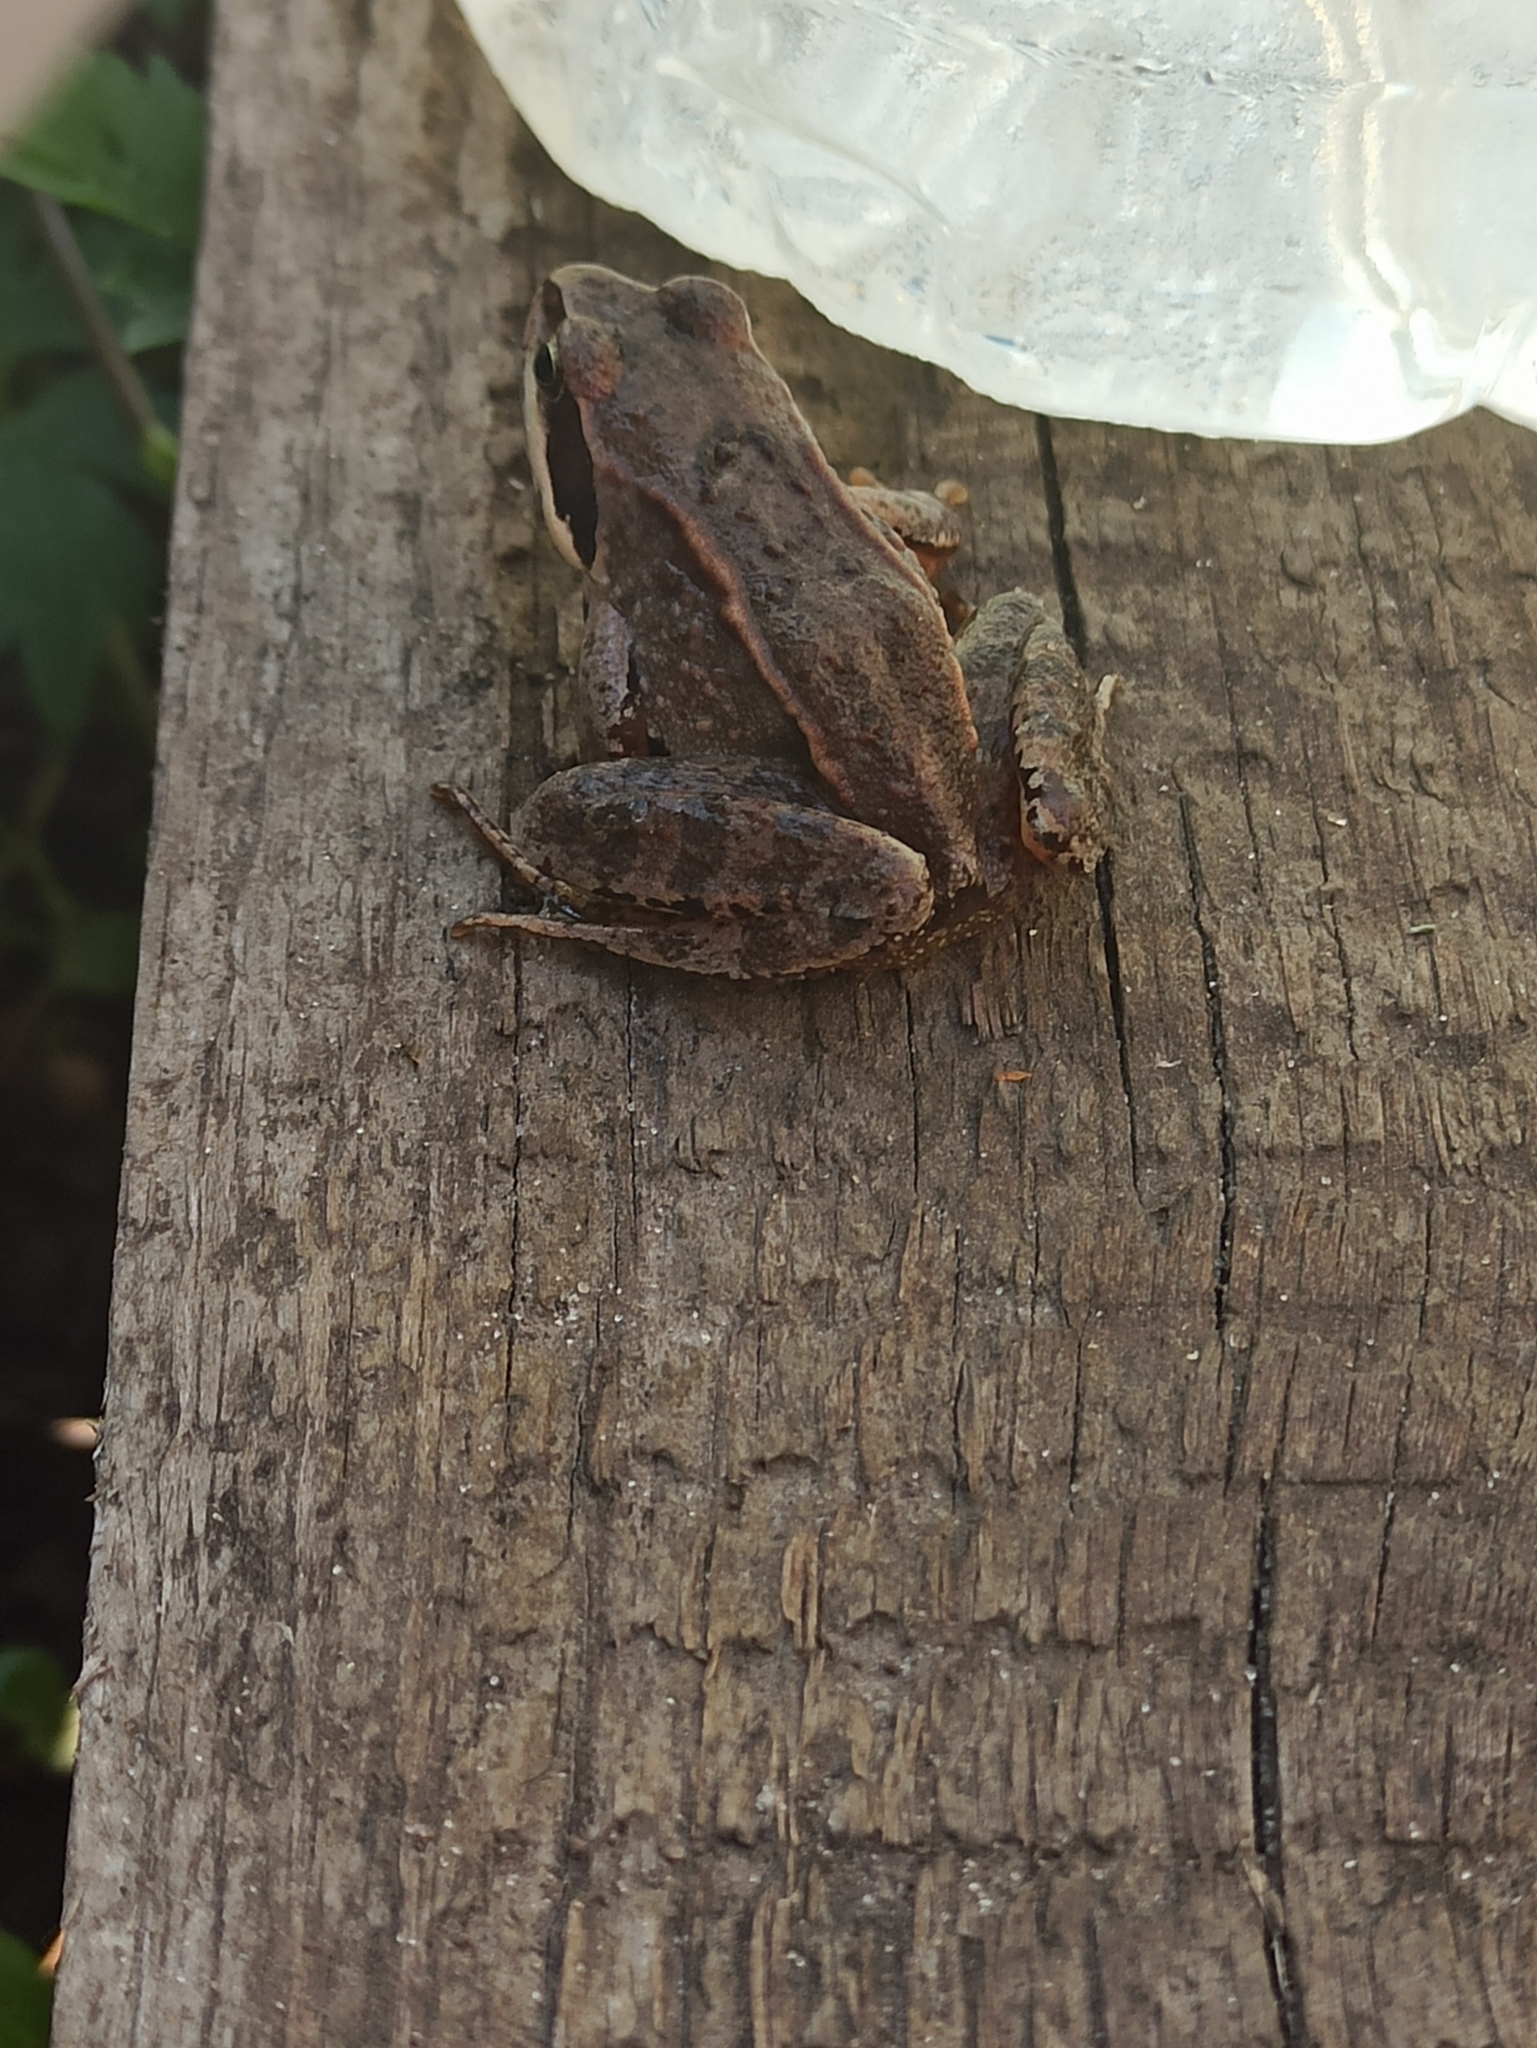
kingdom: Animalia
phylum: Chordata
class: Amphibia
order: Anura
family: Ranidae
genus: Rana
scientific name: Rana arvalis
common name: Moor frog
